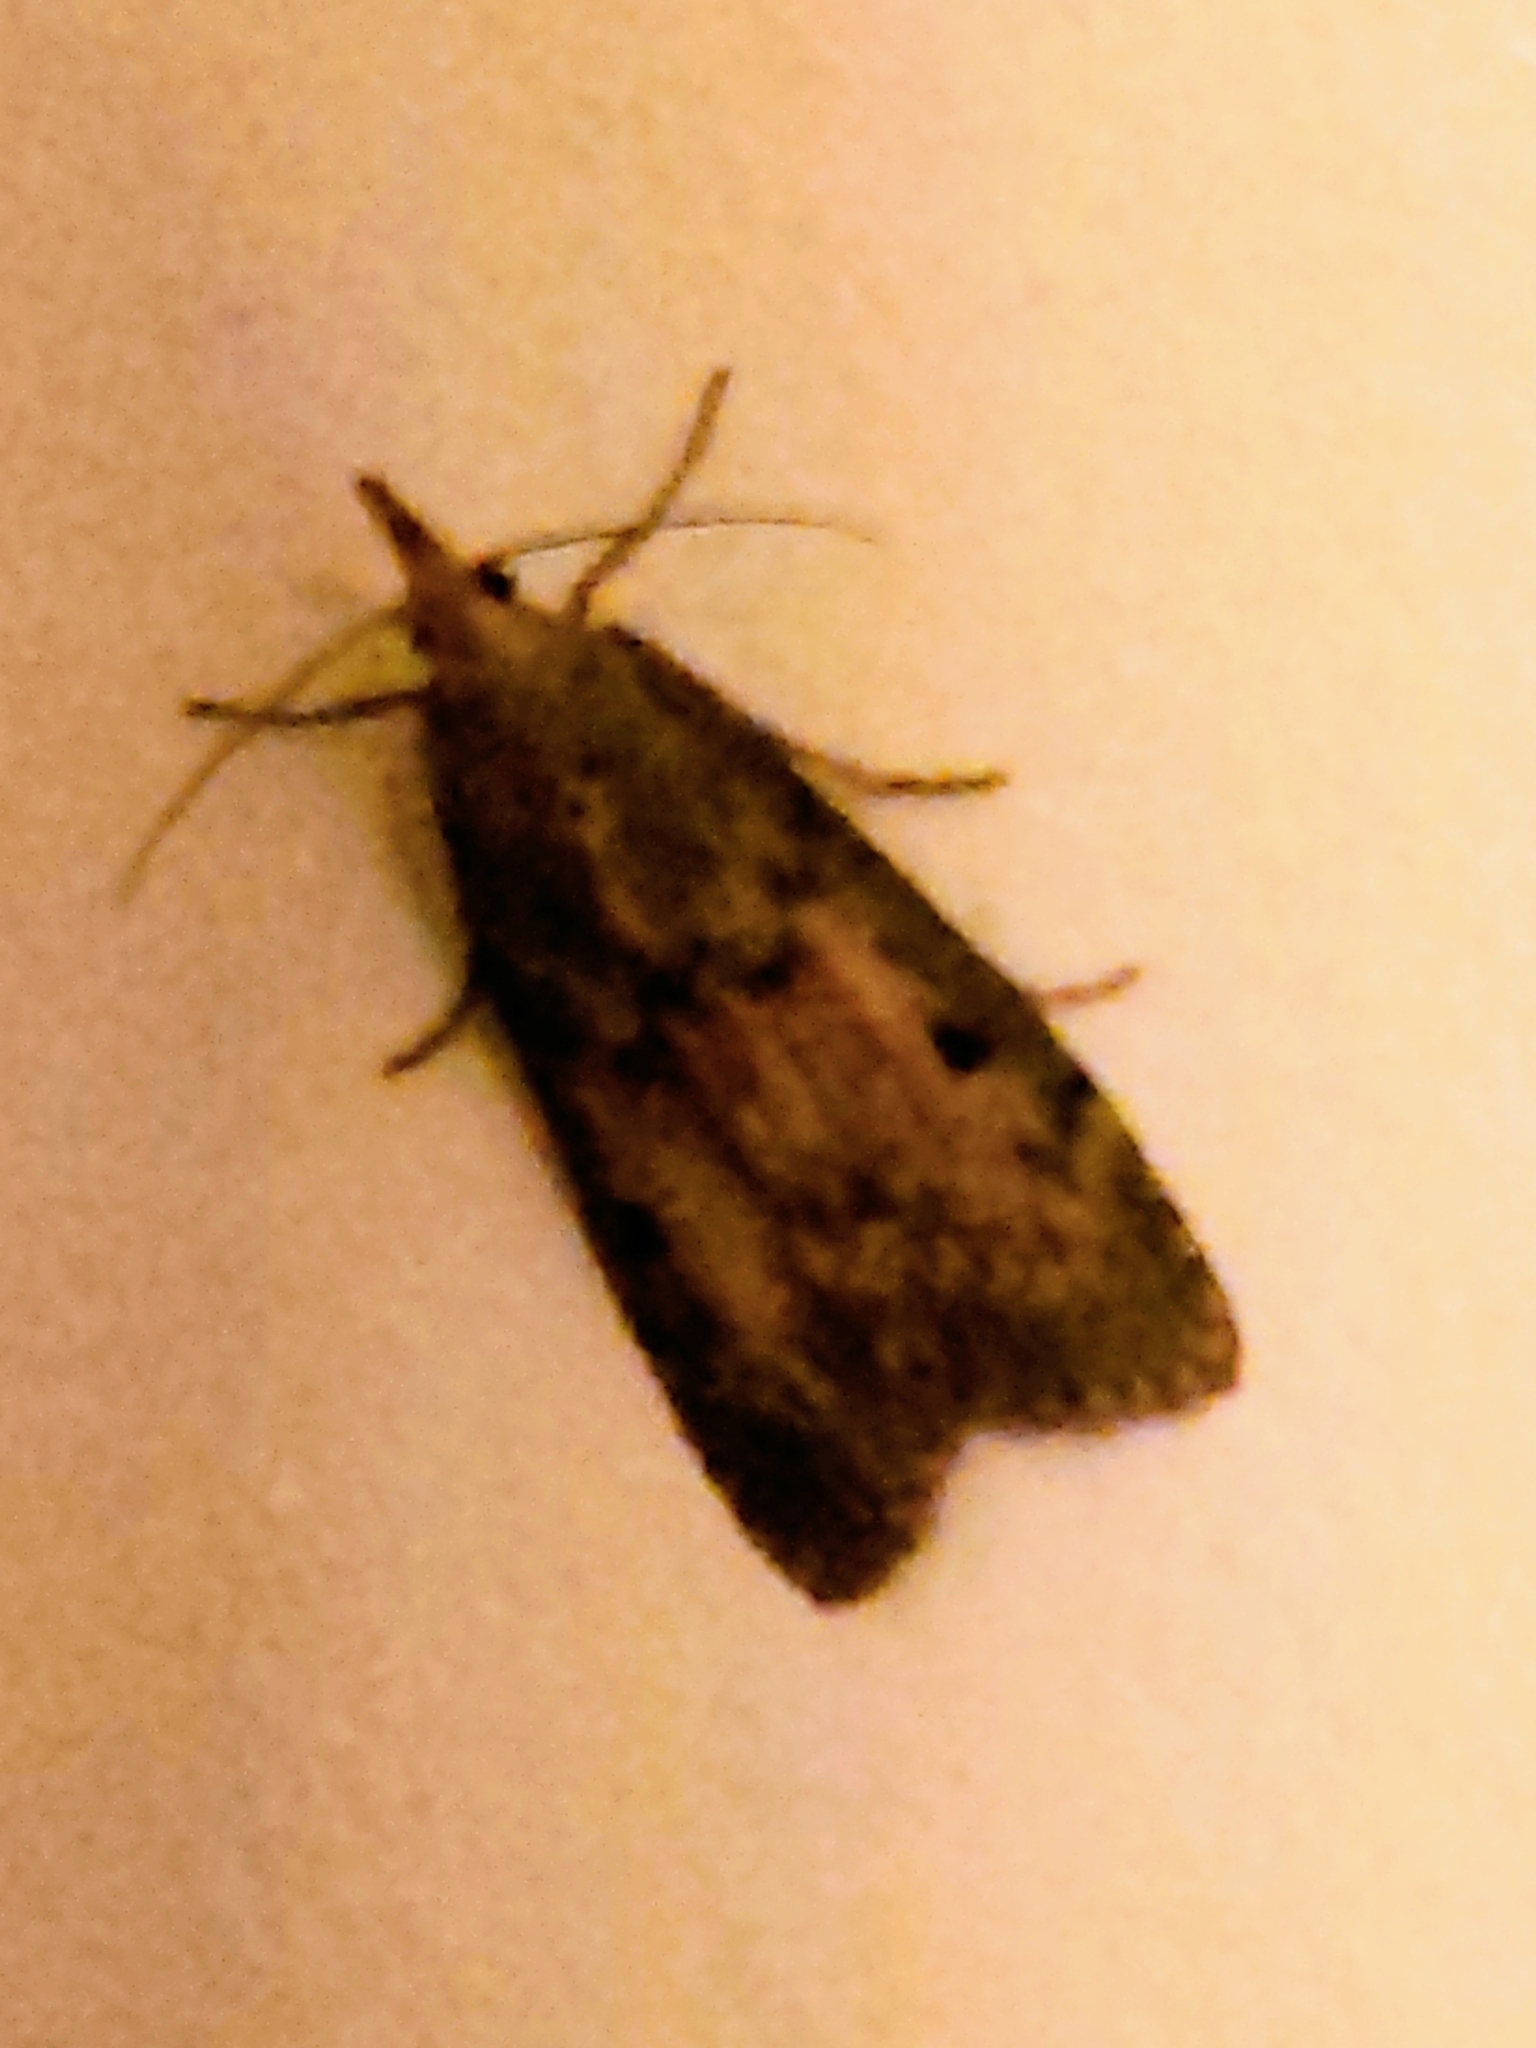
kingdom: Animalia
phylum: Arthropoda
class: Insecta
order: Lepidoptera
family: Pyralidae
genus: Aphomia
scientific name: Aphomia sociella
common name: Bee moth
